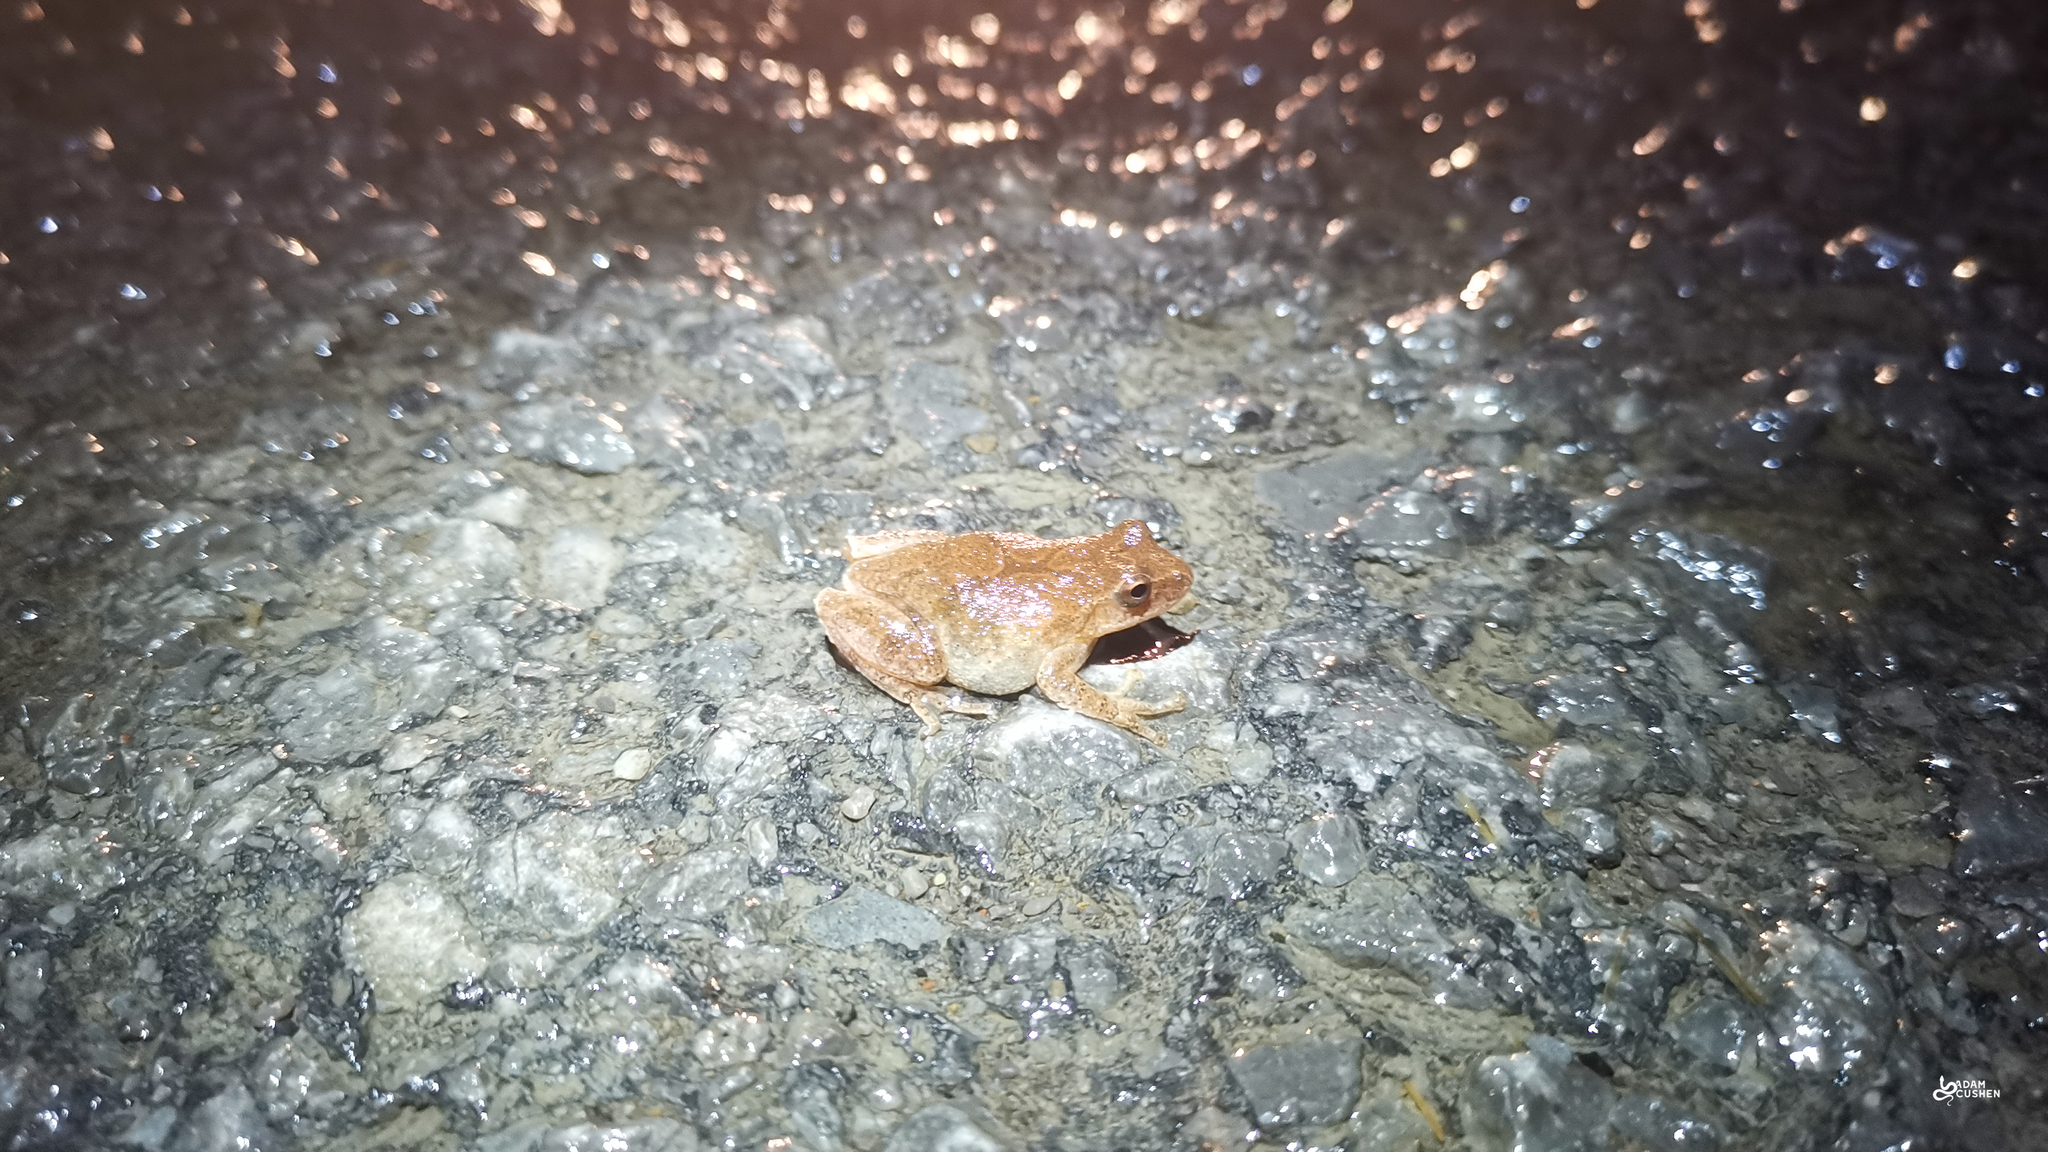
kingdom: Animalia
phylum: Chordata
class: Amphibia
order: Anura
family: Hylidae
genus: Pseudacris
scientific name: Pseudacris crucifer
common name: Spring peeper
